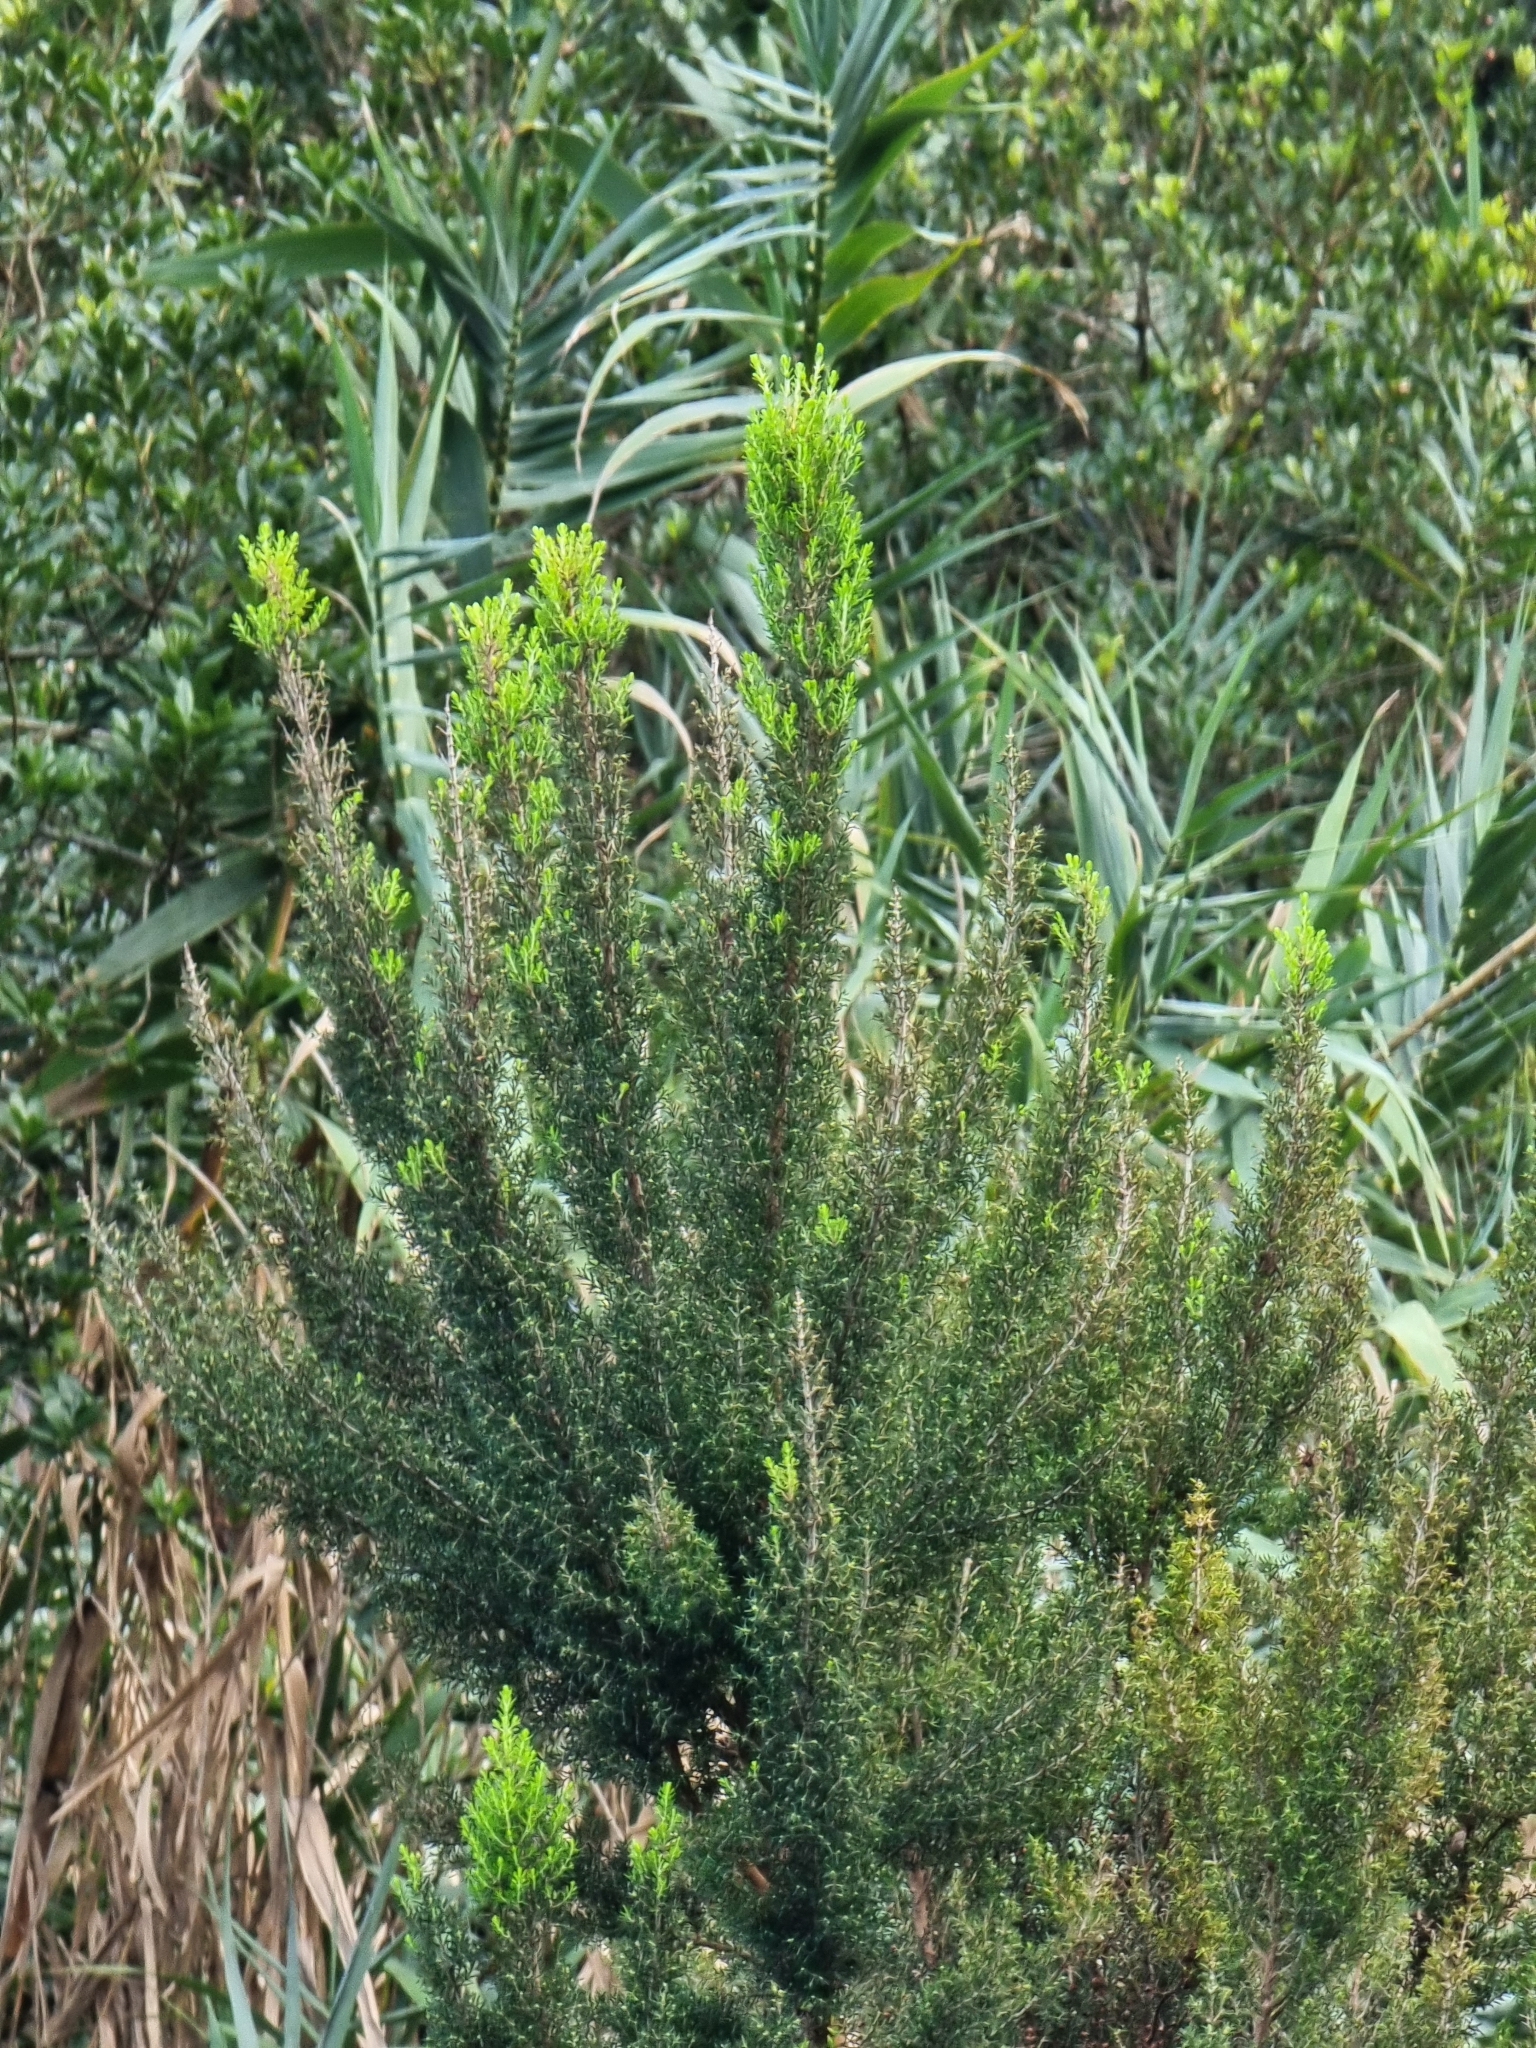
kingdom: Plantae
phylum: Tracheophyta
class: Magnoliopsida
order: Ericales
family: Ericaceae
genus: Erica
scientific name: Erica canariensis
